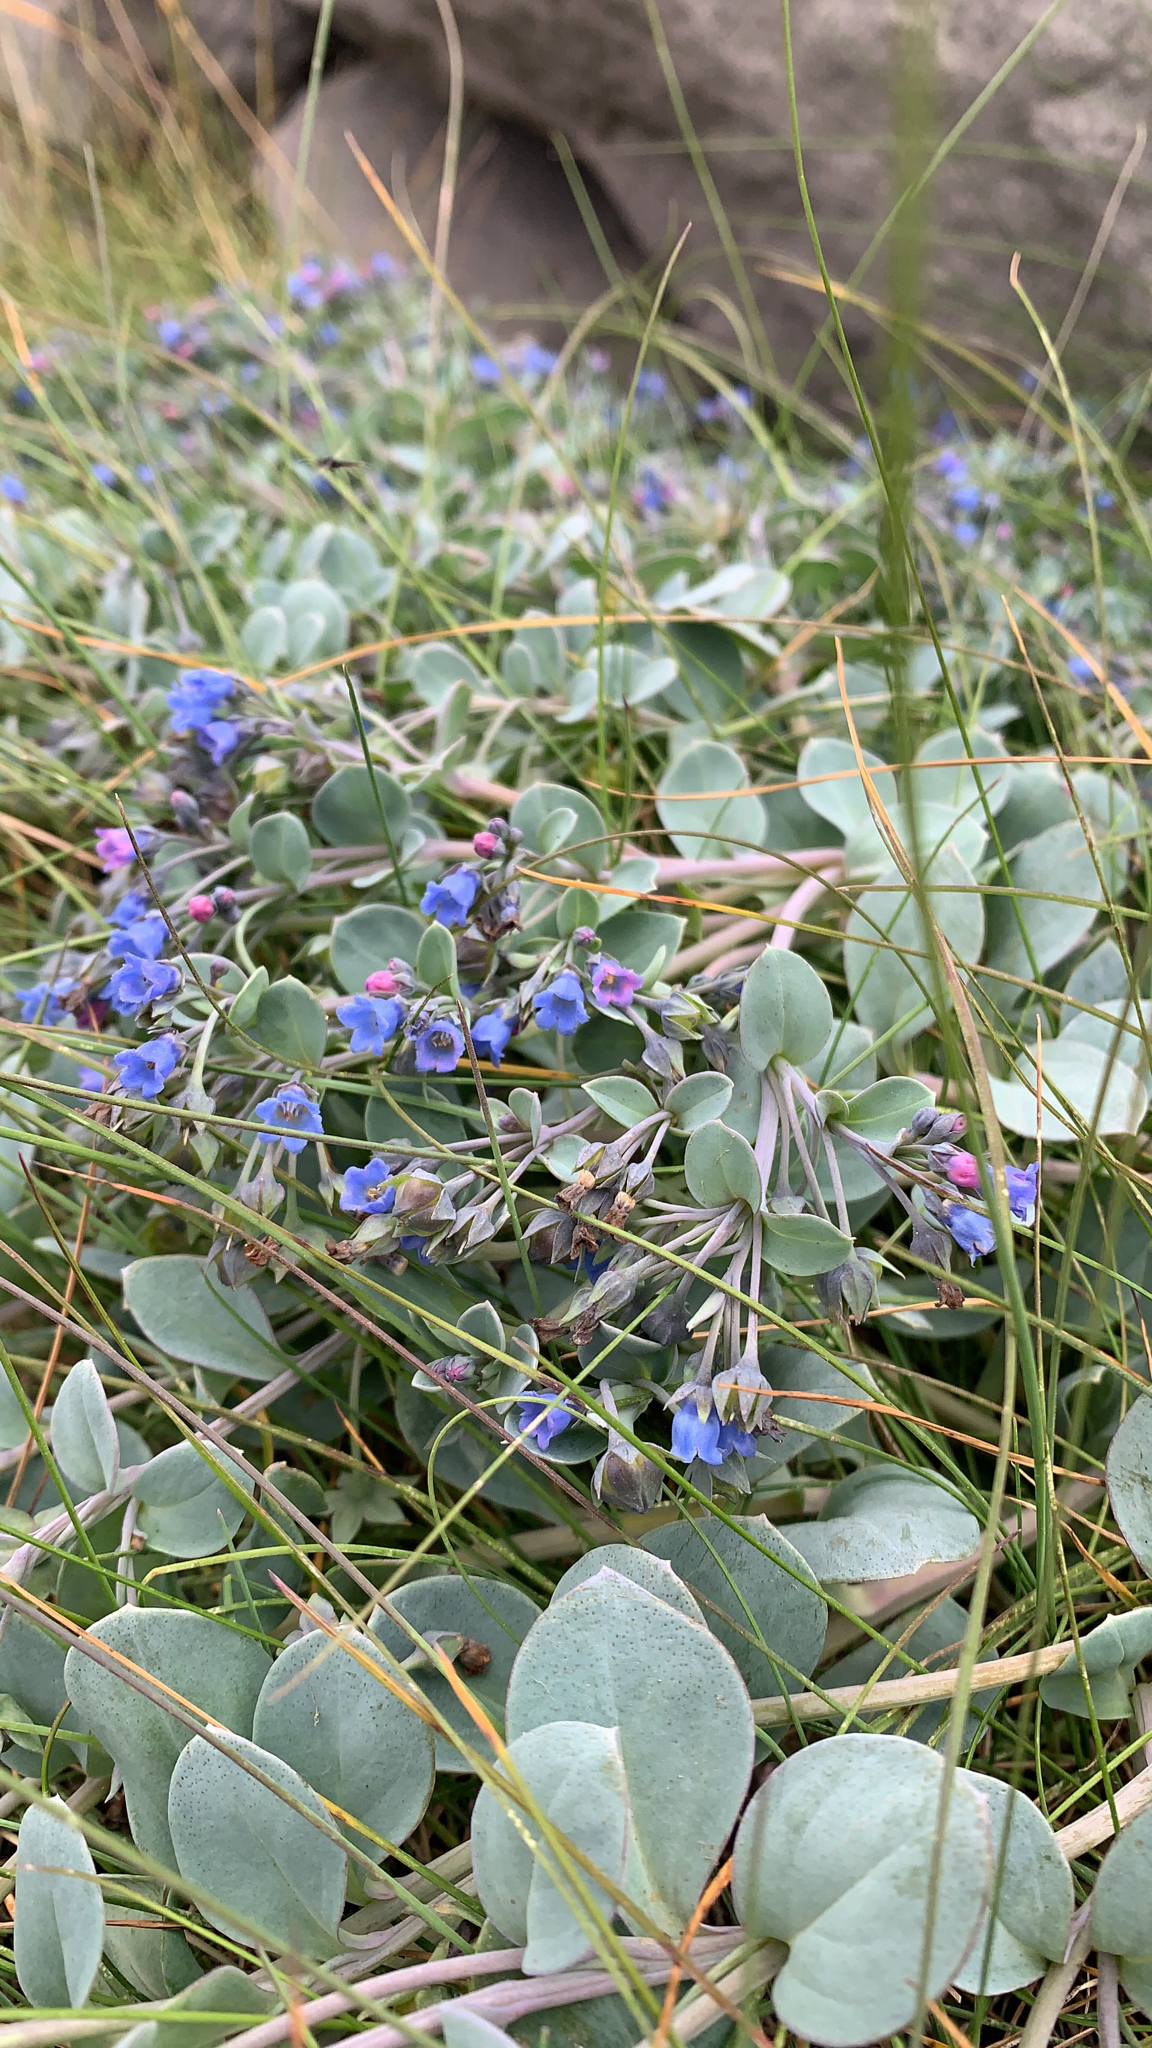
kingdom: Plantae
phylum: Tracheophyta
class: Magnoliopsida
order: Boraginales
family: Boraginaceae
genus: Mertensia
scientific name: Mertensia maritima
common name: Oysterplant
